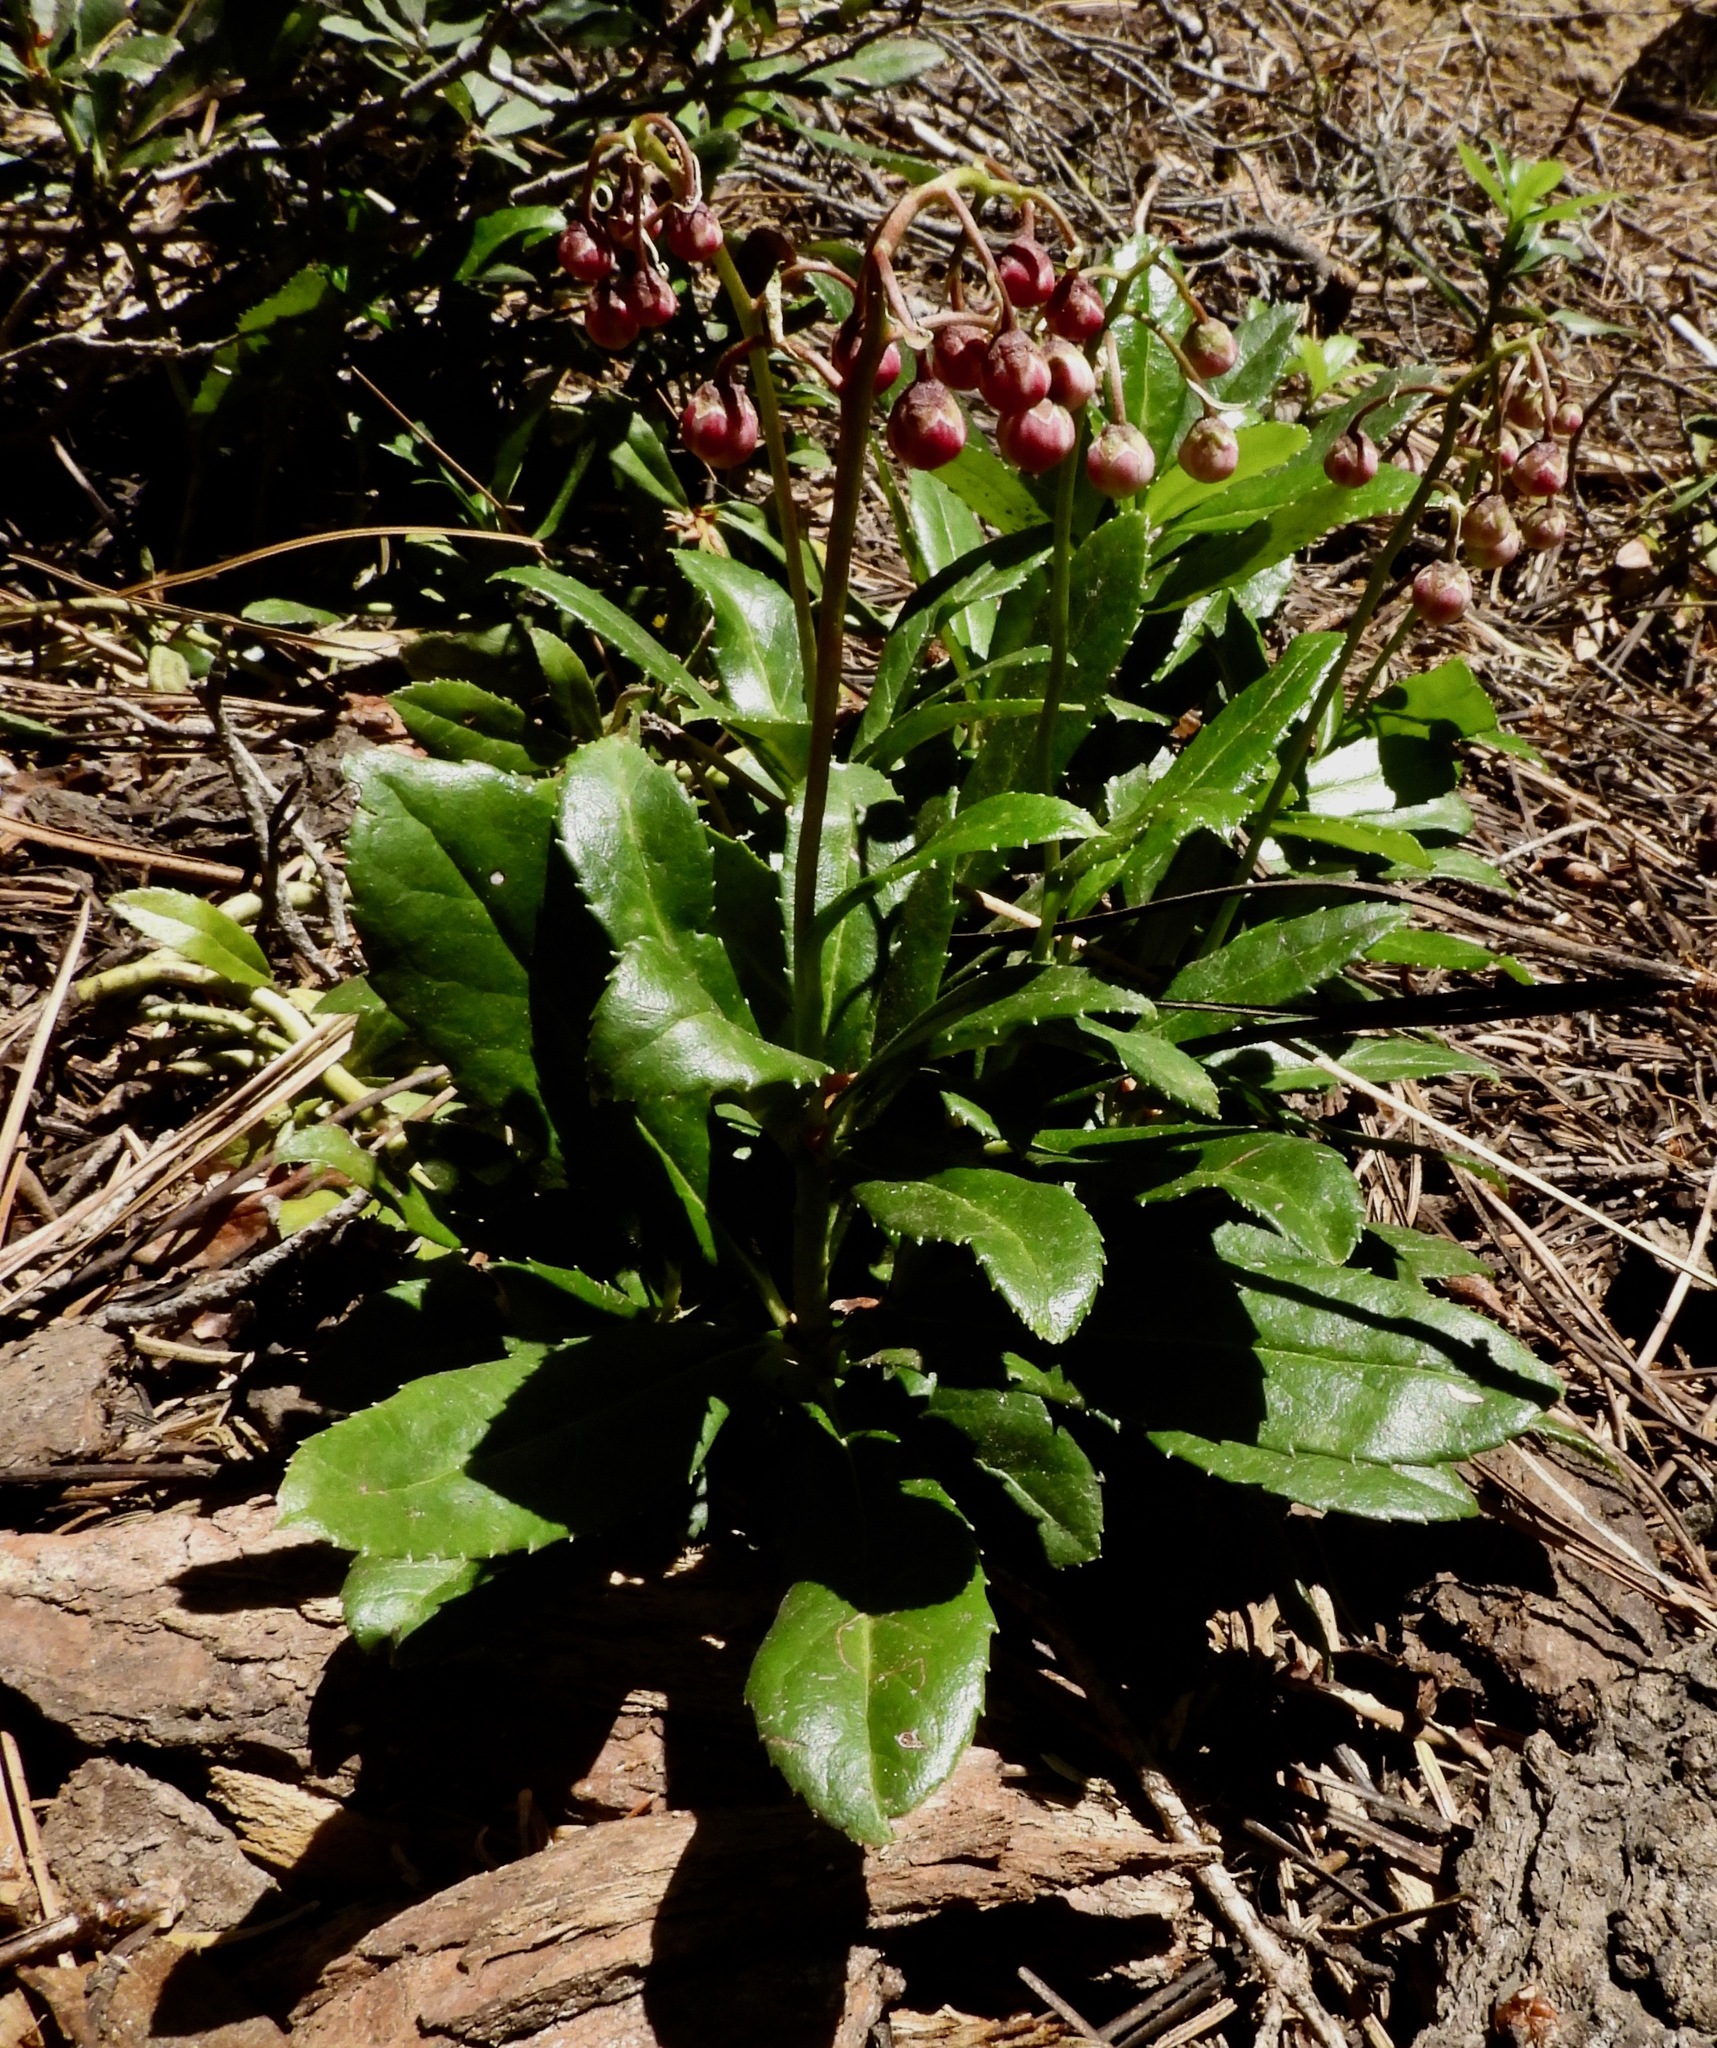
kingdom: Plantae
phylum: Tracheophyta
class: Magnoliopsida
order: Ericales
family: Ericaceae
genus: Chimaphila
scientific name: Chimaphila umbellata
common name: Pipsissewa
